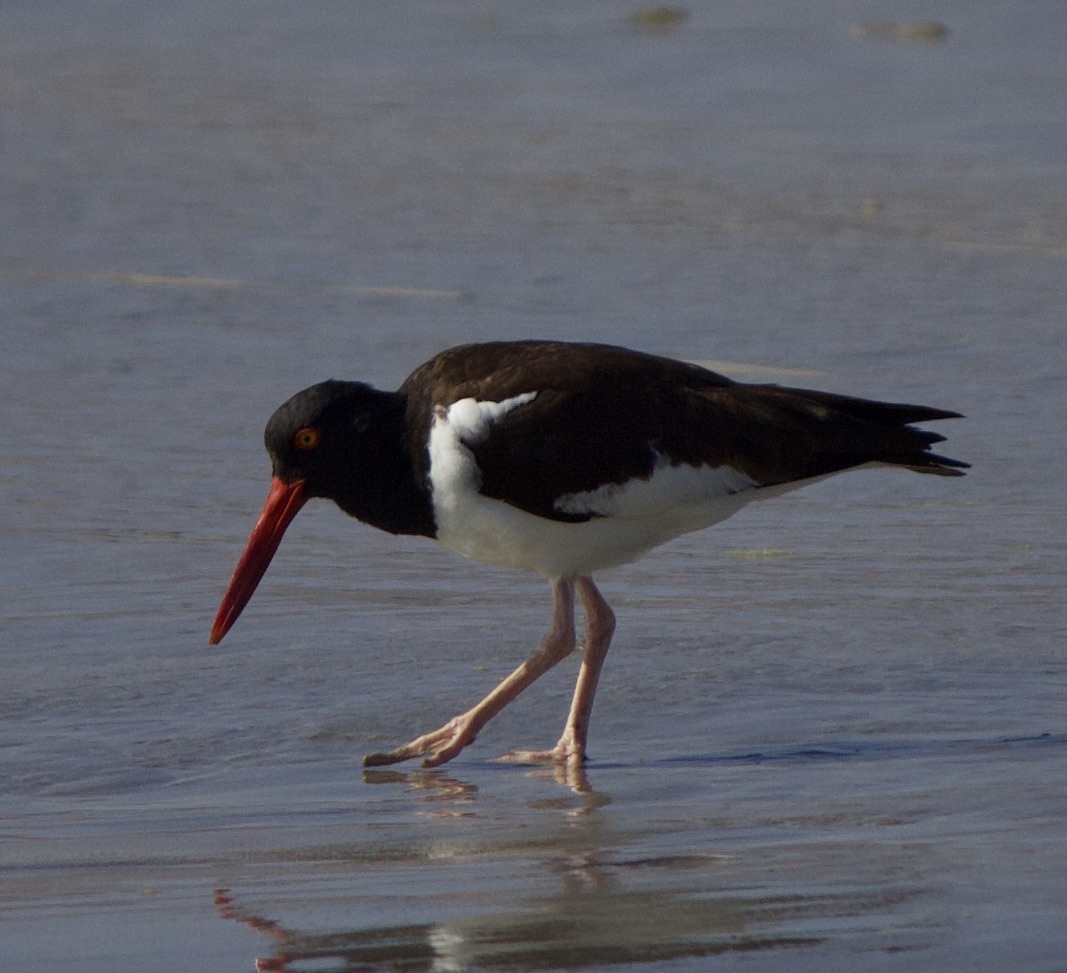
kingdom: Animalia
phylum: Chordata
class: Aves
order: Charadriiformes
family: Haematopodidae
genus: Haematopus
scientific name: Haematopus palliatus
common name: American oystercatcher
